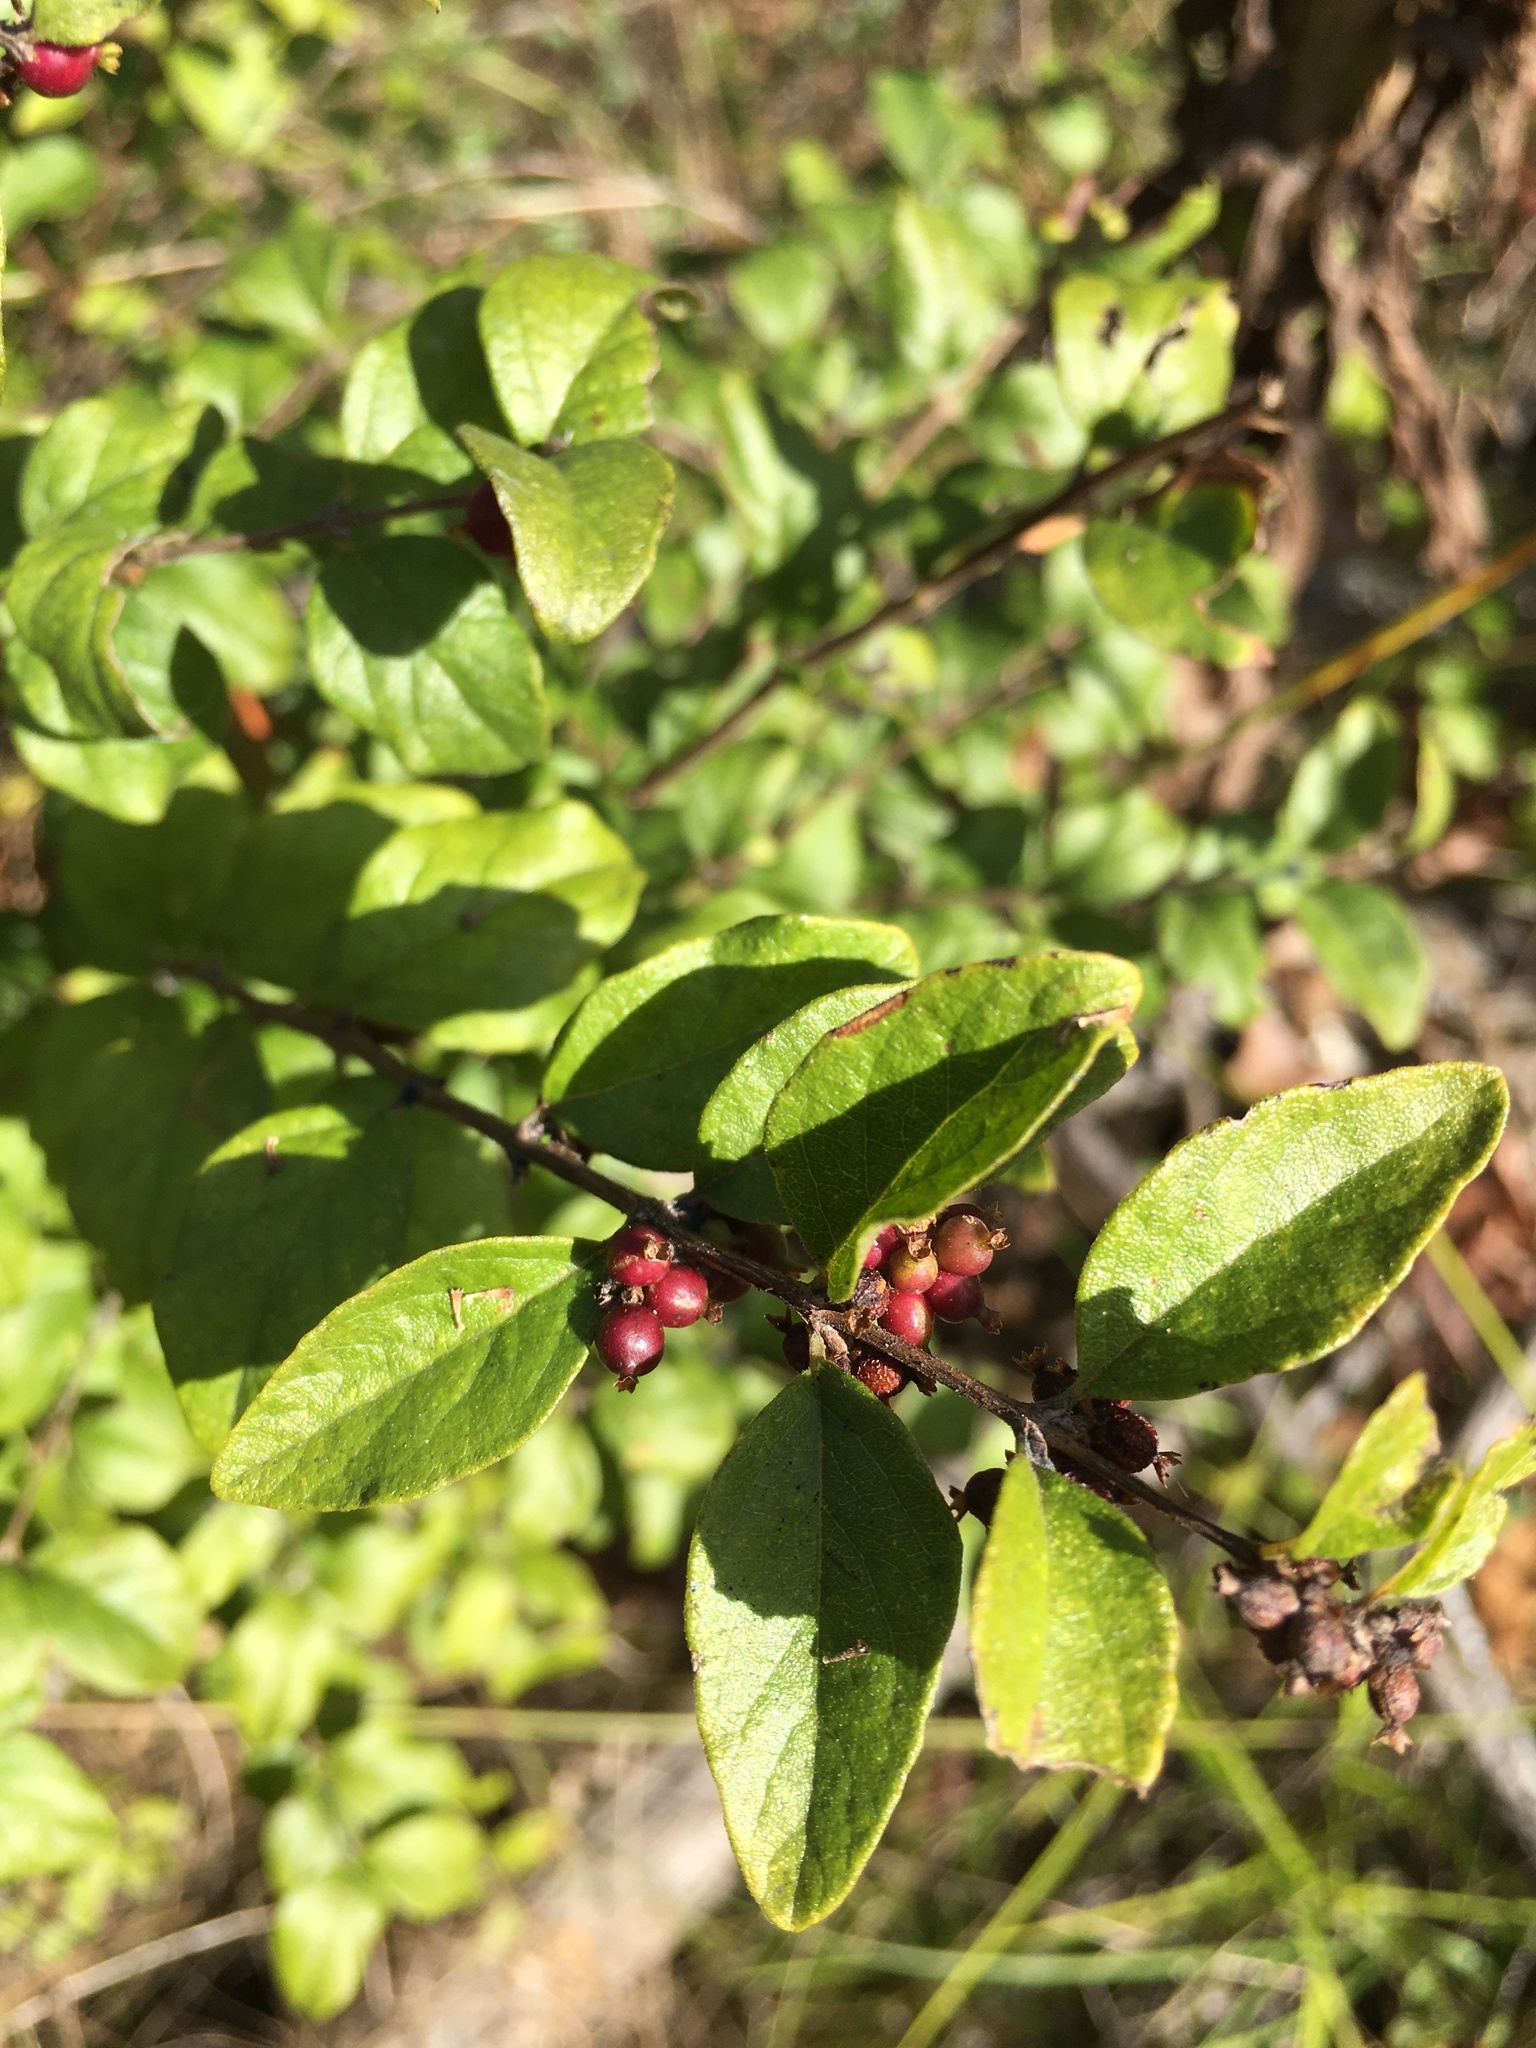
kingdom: Plantae
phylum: Tracheophyta
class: Magnoliopsida
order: Dipsacales
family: Caprifoliaceae
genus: Symphoricarpos
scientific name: Symphoricarpos orbiculatus
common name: Coralberry
